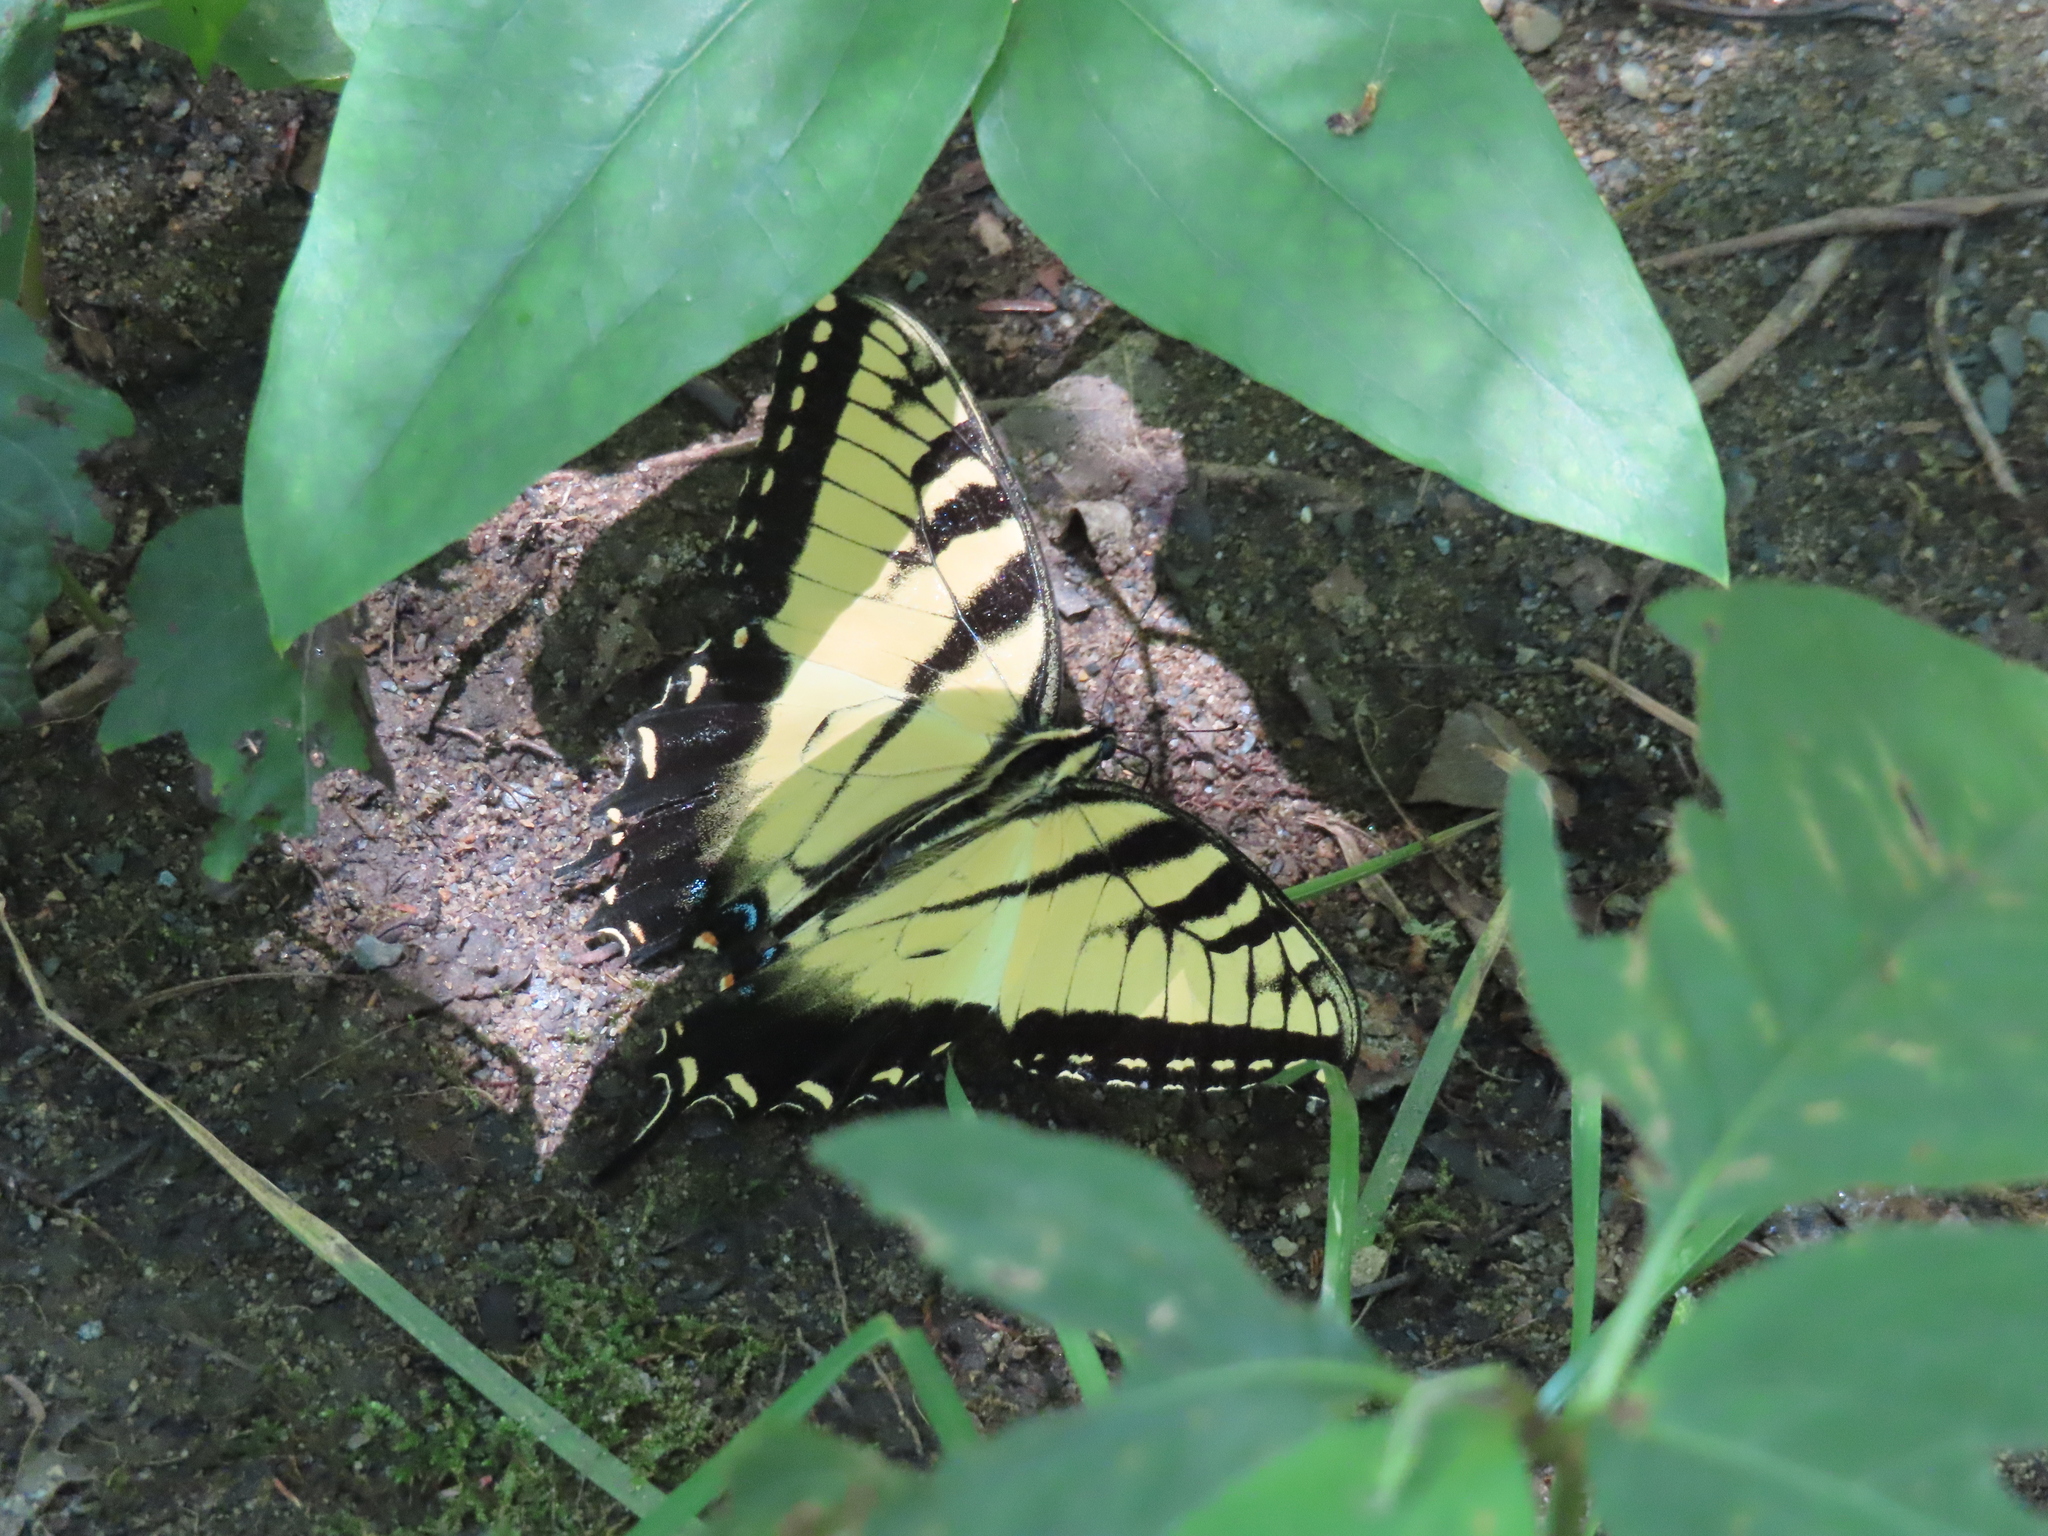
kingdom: Animalia
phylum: Arthropoda
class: Insecta
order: Lepidoptera
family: Papilionidae
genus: Papilio
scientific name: Papilio glaucus
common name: Tiger swallowtail
